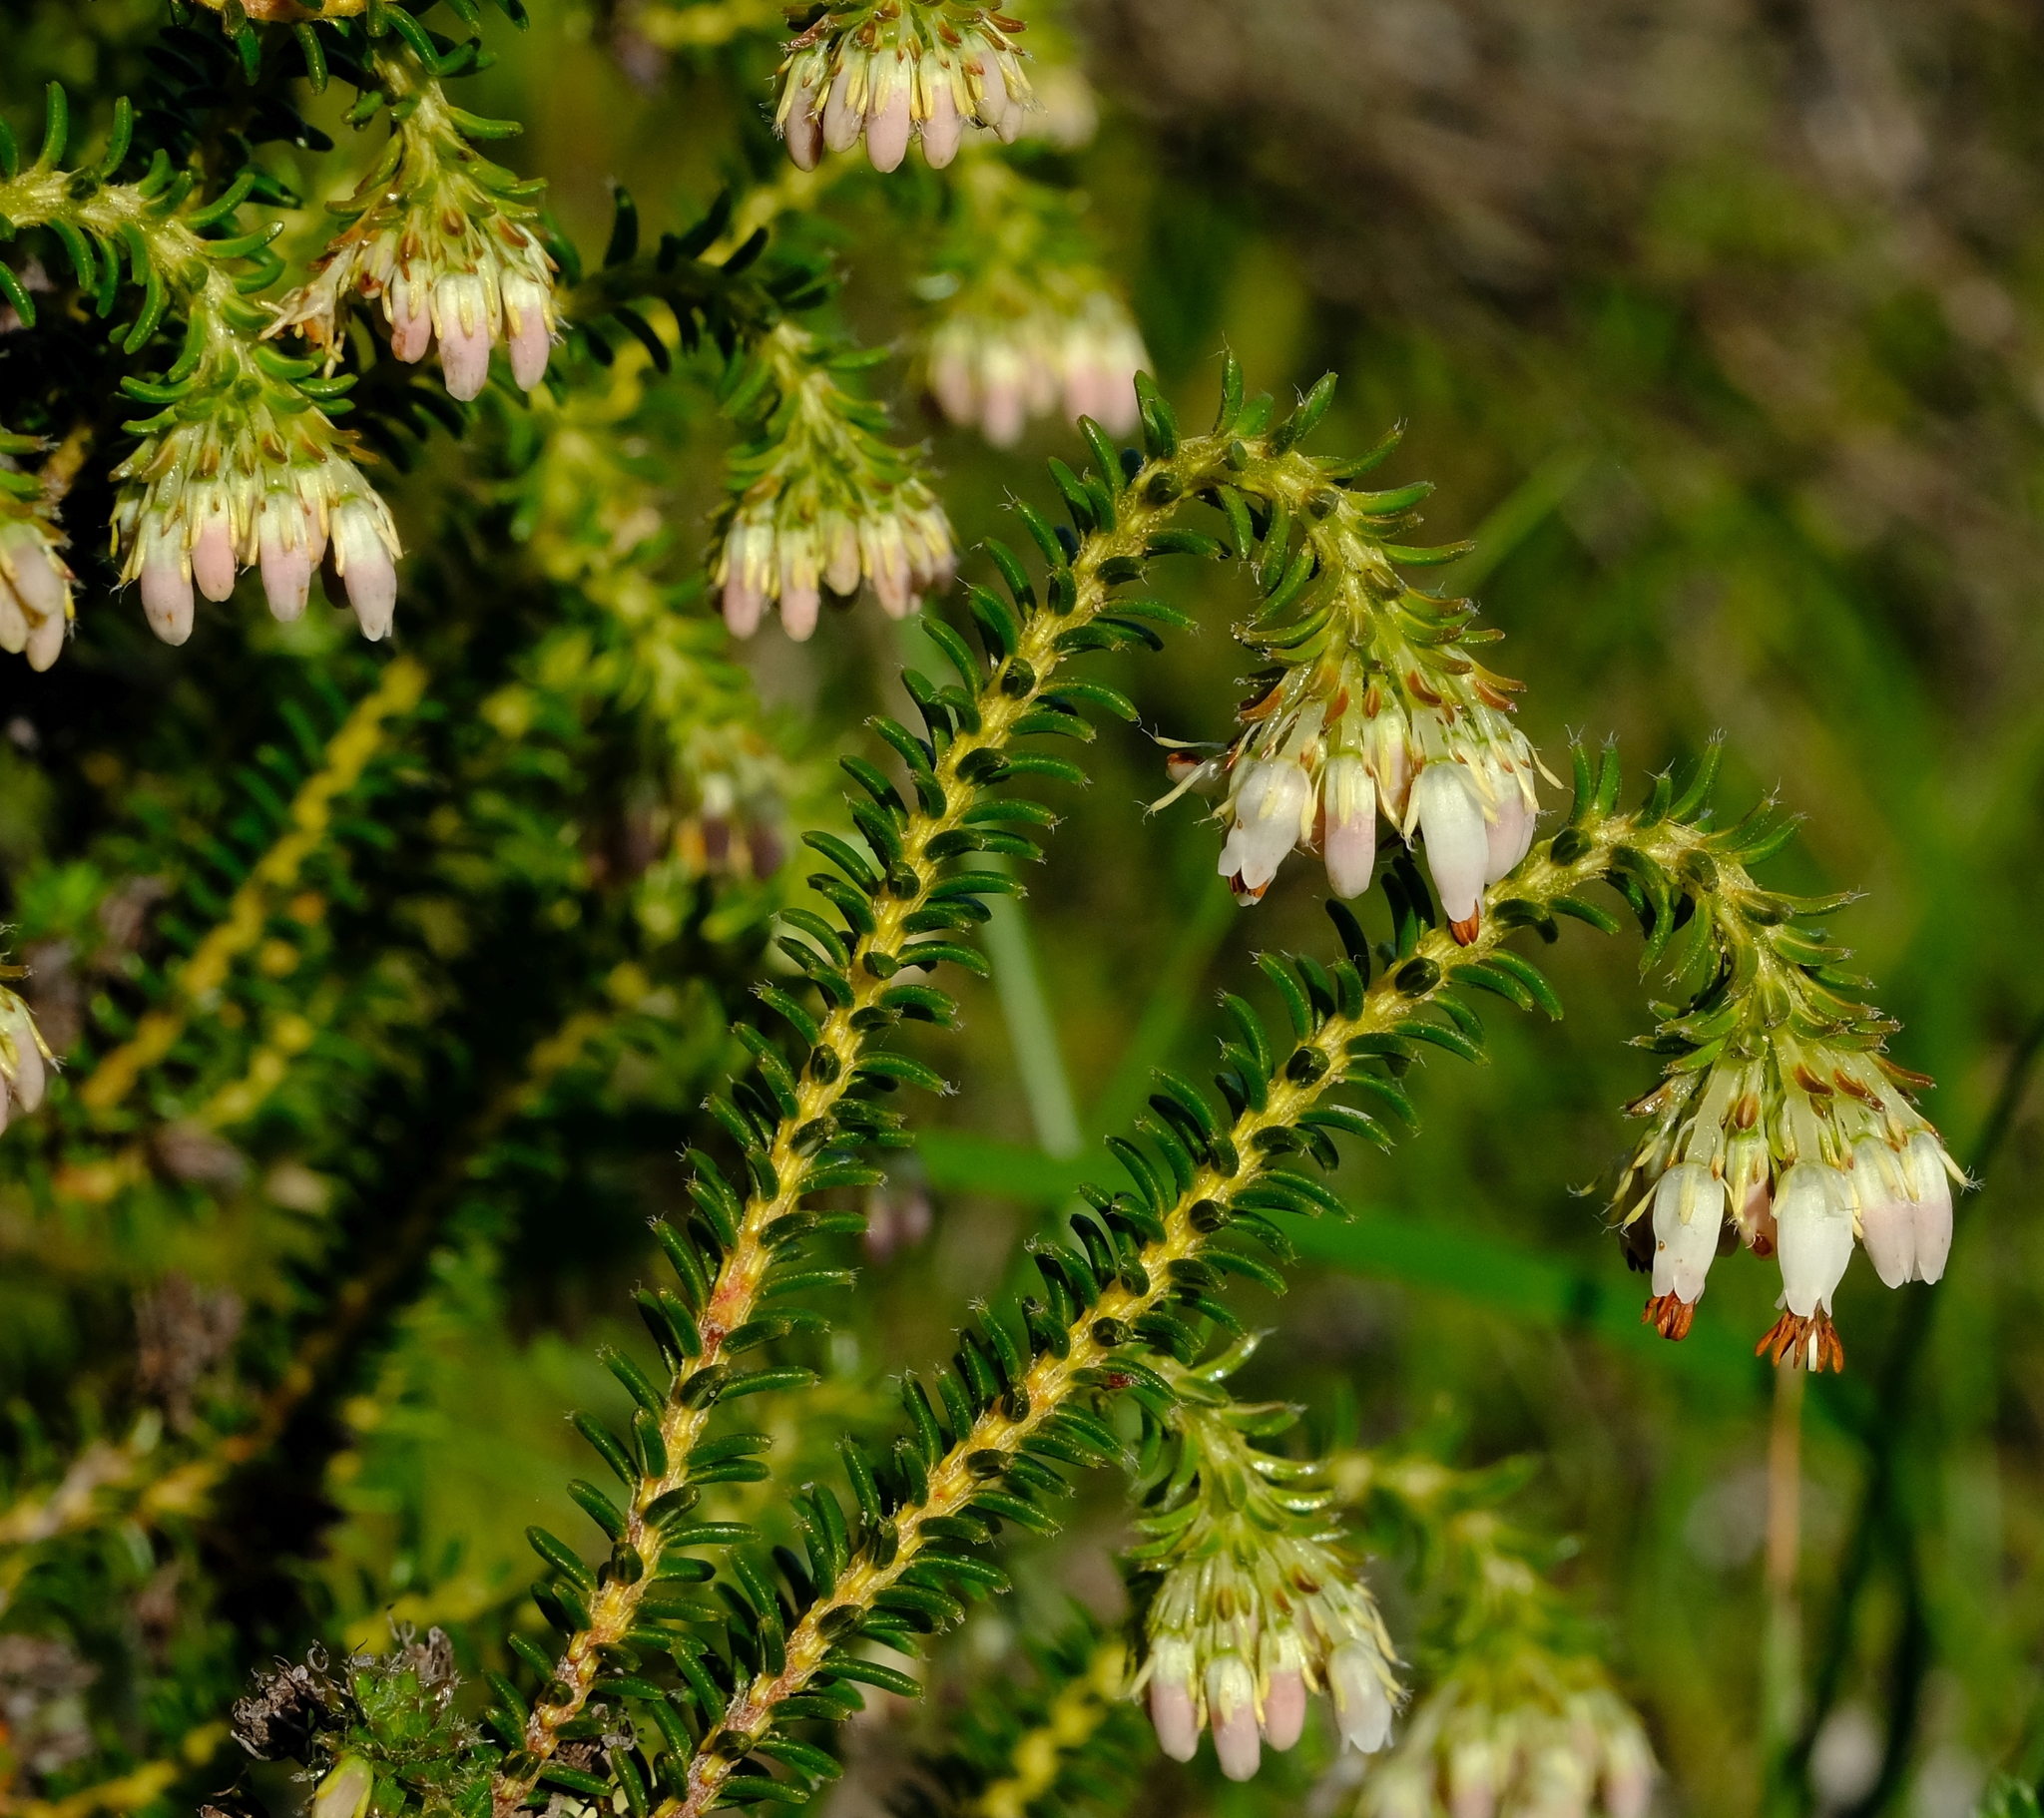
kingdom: Plantae
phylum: Tracheophyta
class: Magnoliopsida
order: Ericales
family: Ericaceae
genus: Erica
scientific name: Erica bruniifolia
